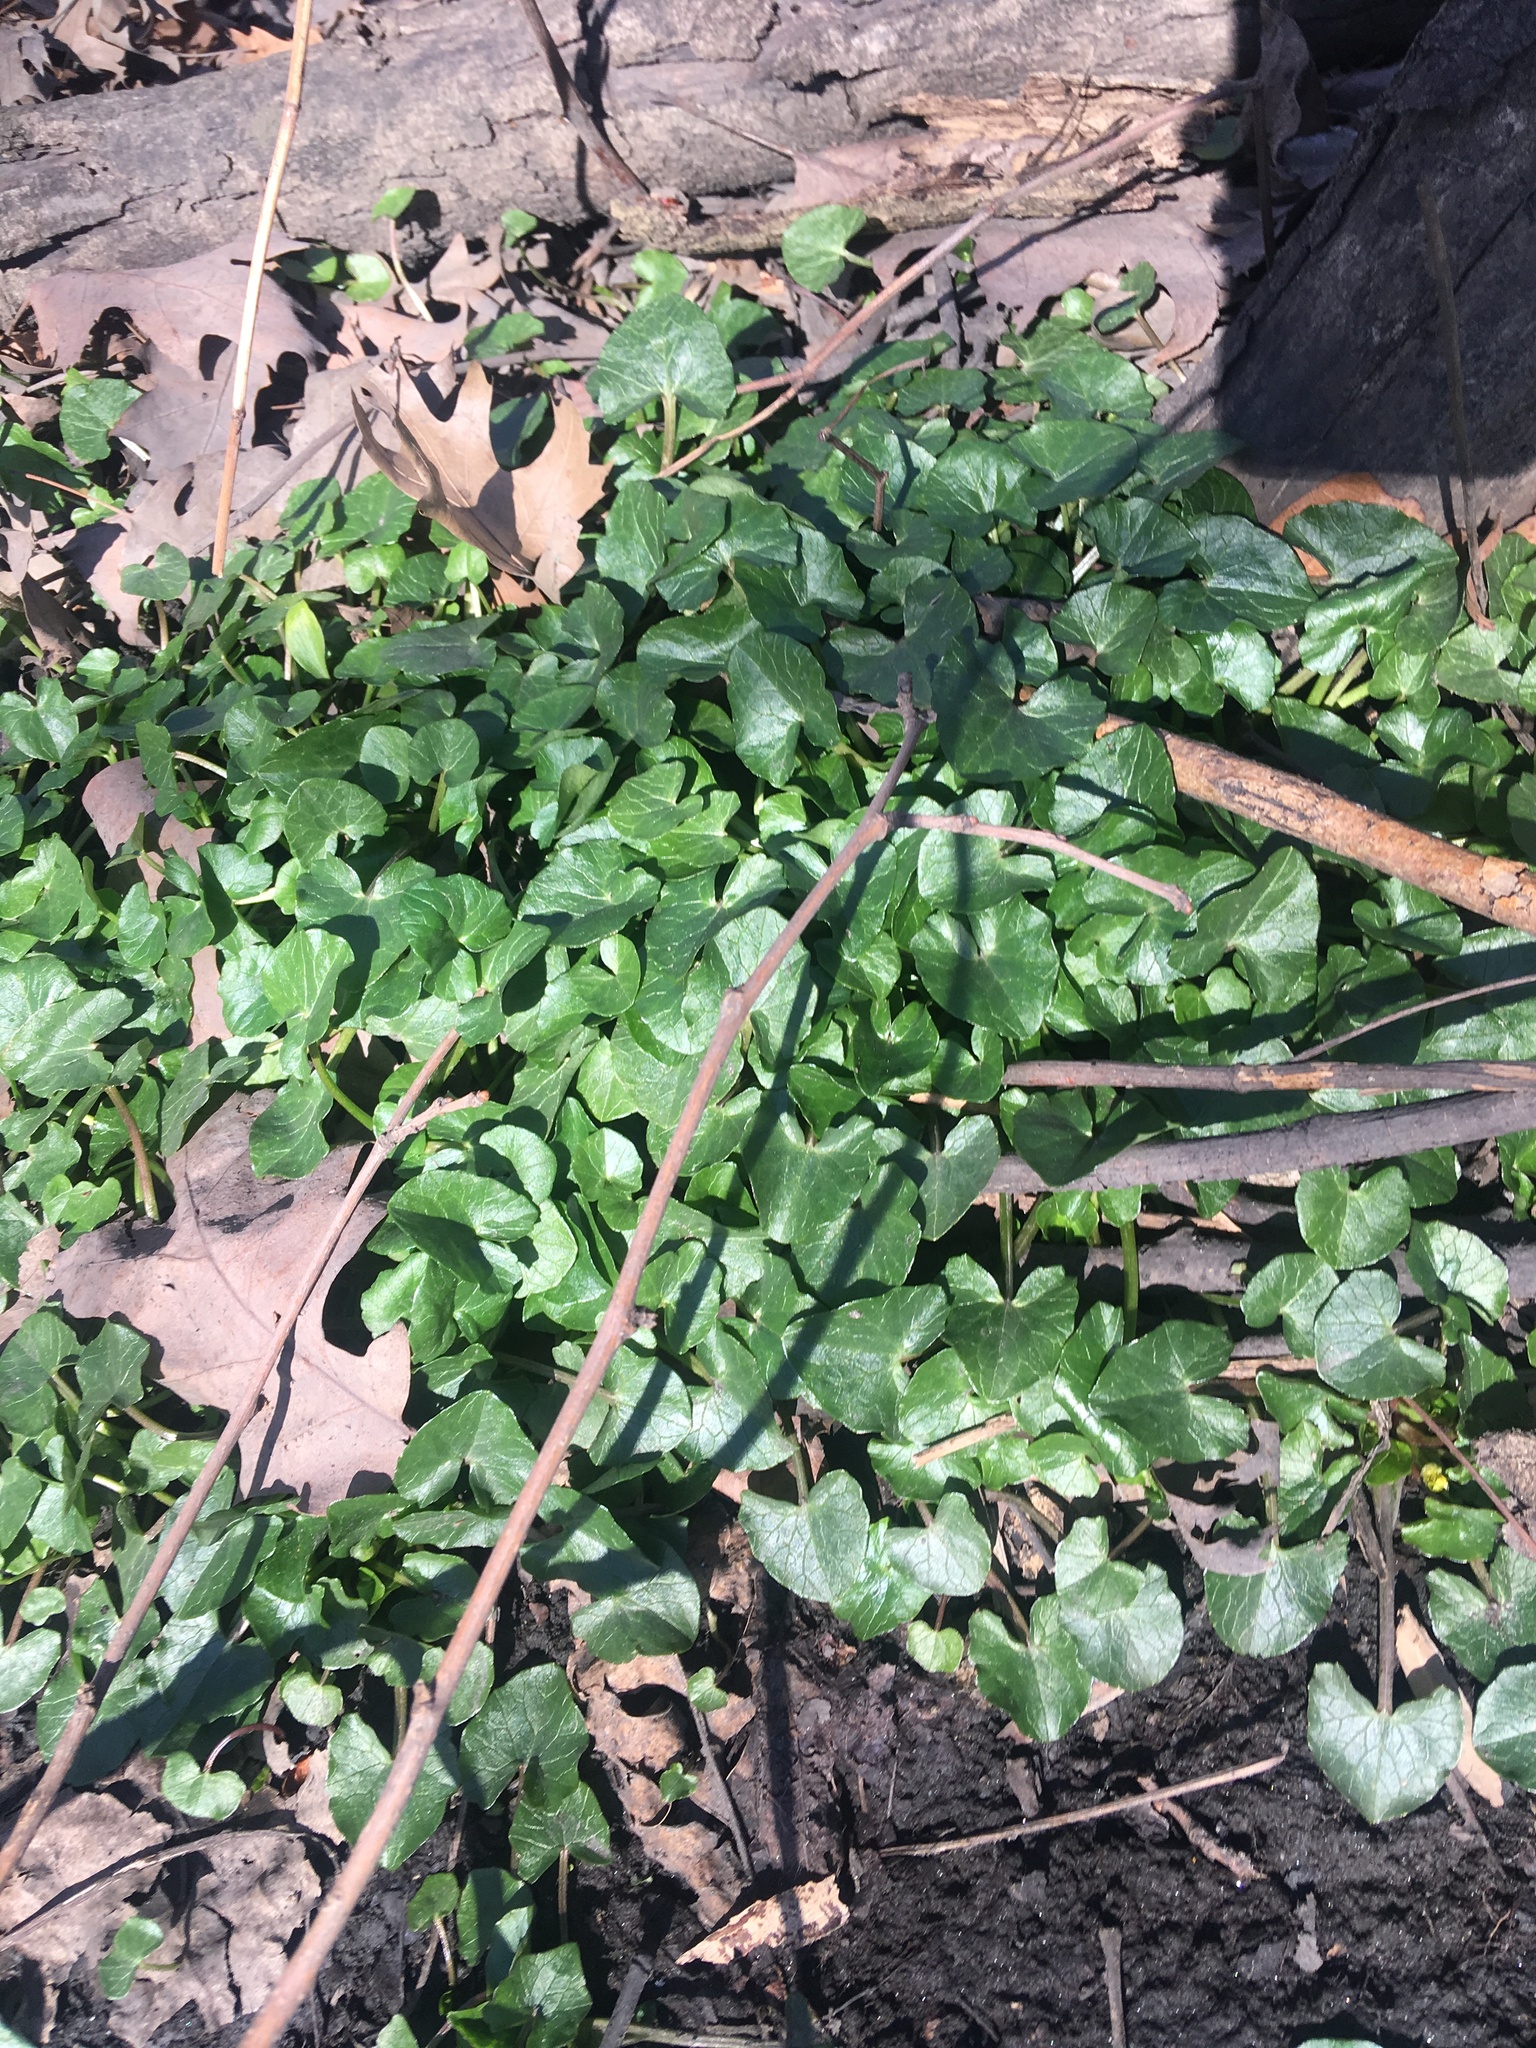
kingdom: Plantae
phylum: Tracheophyta
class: Magnoliopsida
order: Ranunculales
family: Ranunculaceae
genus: Ficaria
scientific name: Ficaria verna
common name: Lesser celandine
